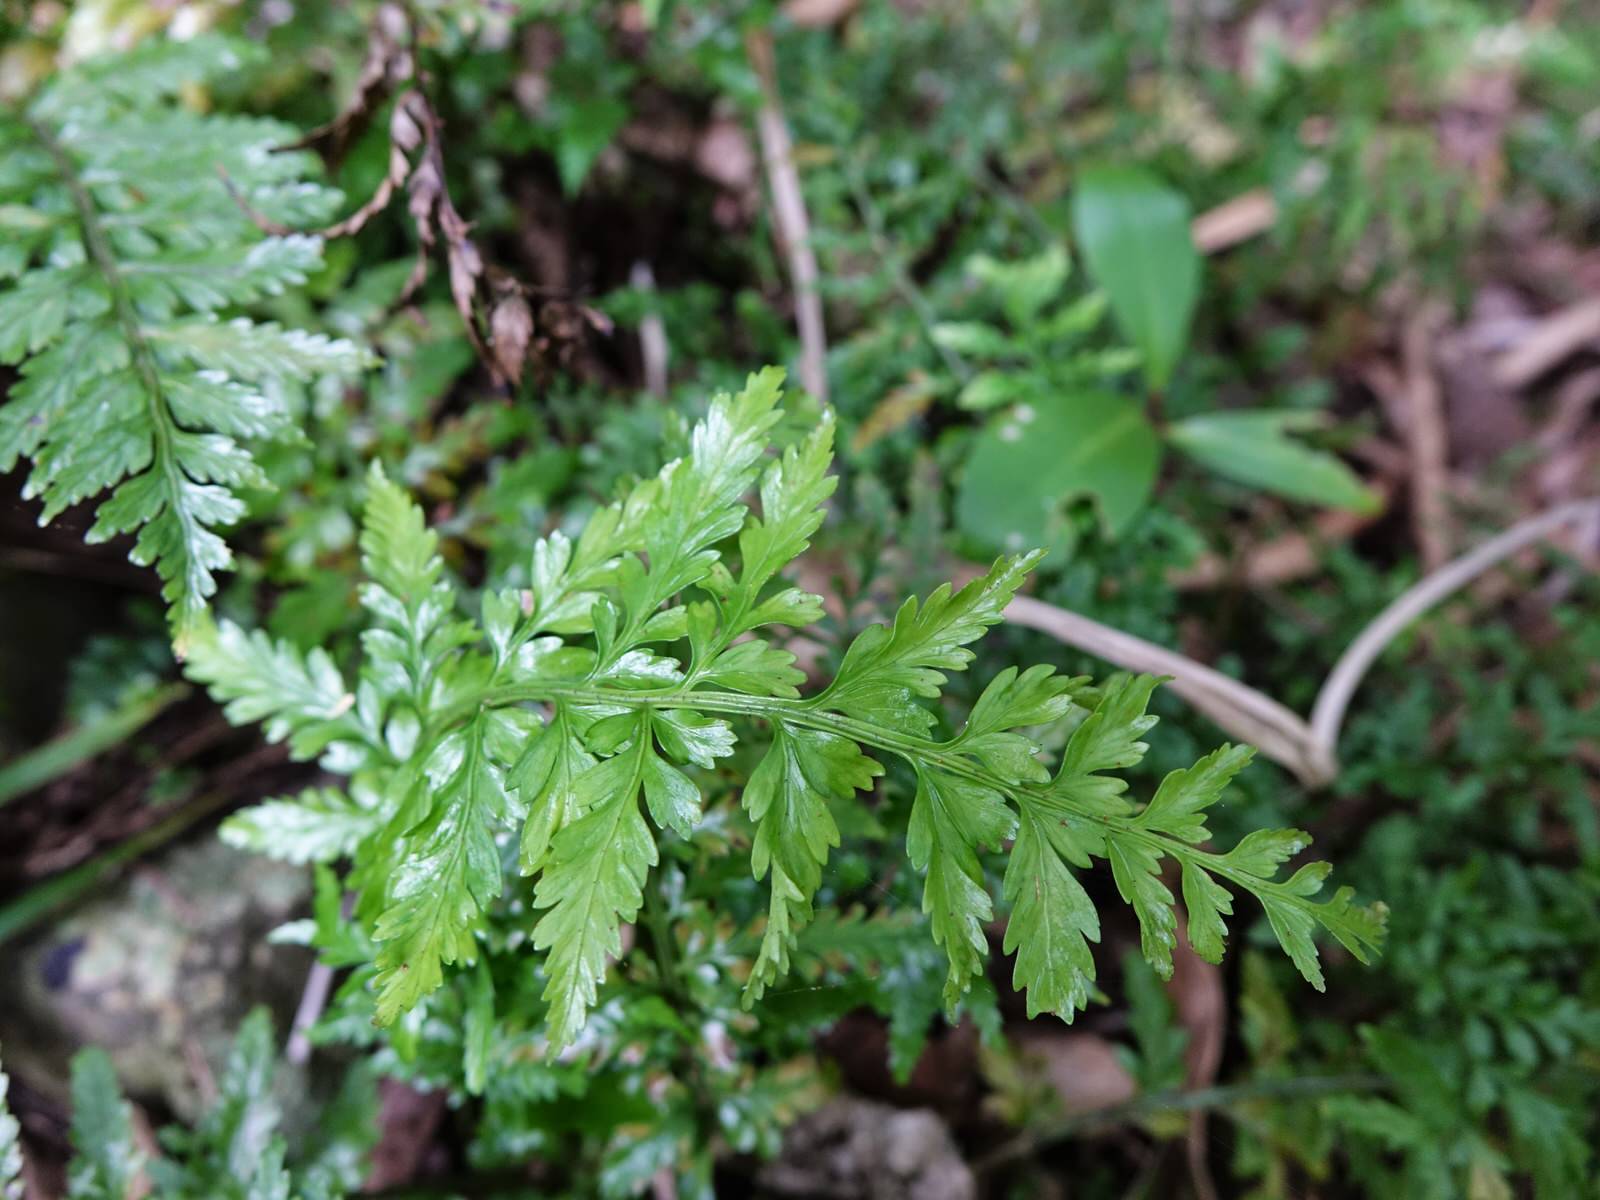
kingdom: Plantae
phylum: Tracheophyta
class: Polypodiopsida
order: Polypodiales
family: Aspleniaceae
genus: Asplenium
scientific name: Asplenium lamprophyllum
